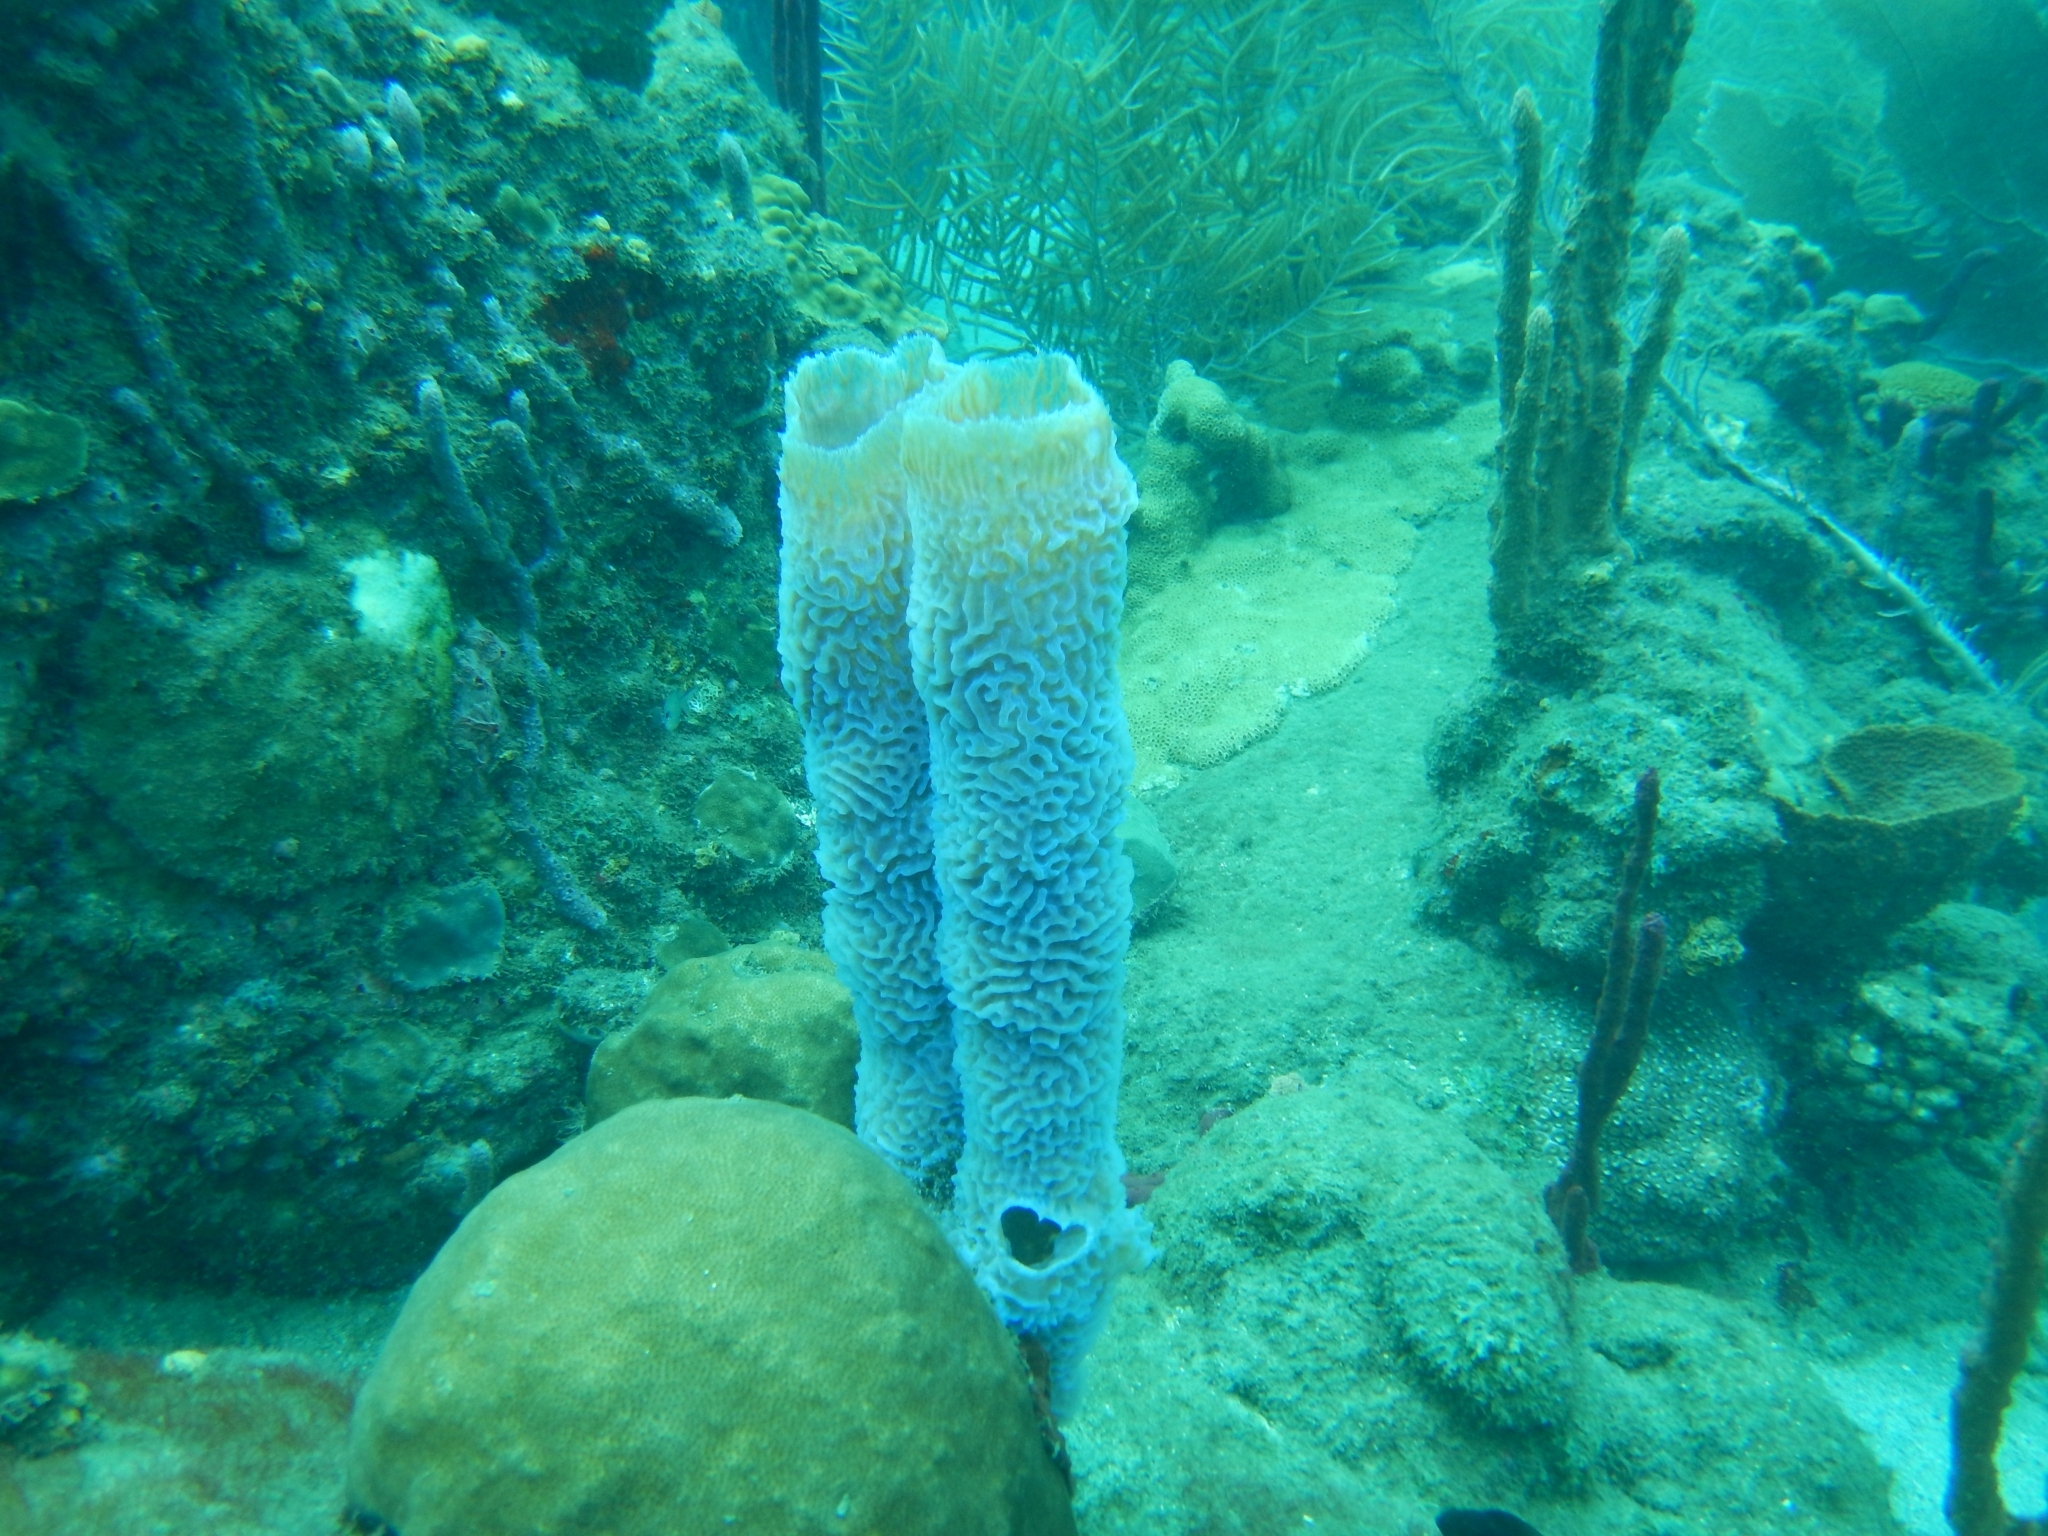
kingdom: Animalia
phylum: Porifera
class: Demospongiae
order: Haplosclerida
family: Callyspongiidae
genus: Callyspongia
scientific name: Callyspongia plicifera
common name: Azure vase sponge
